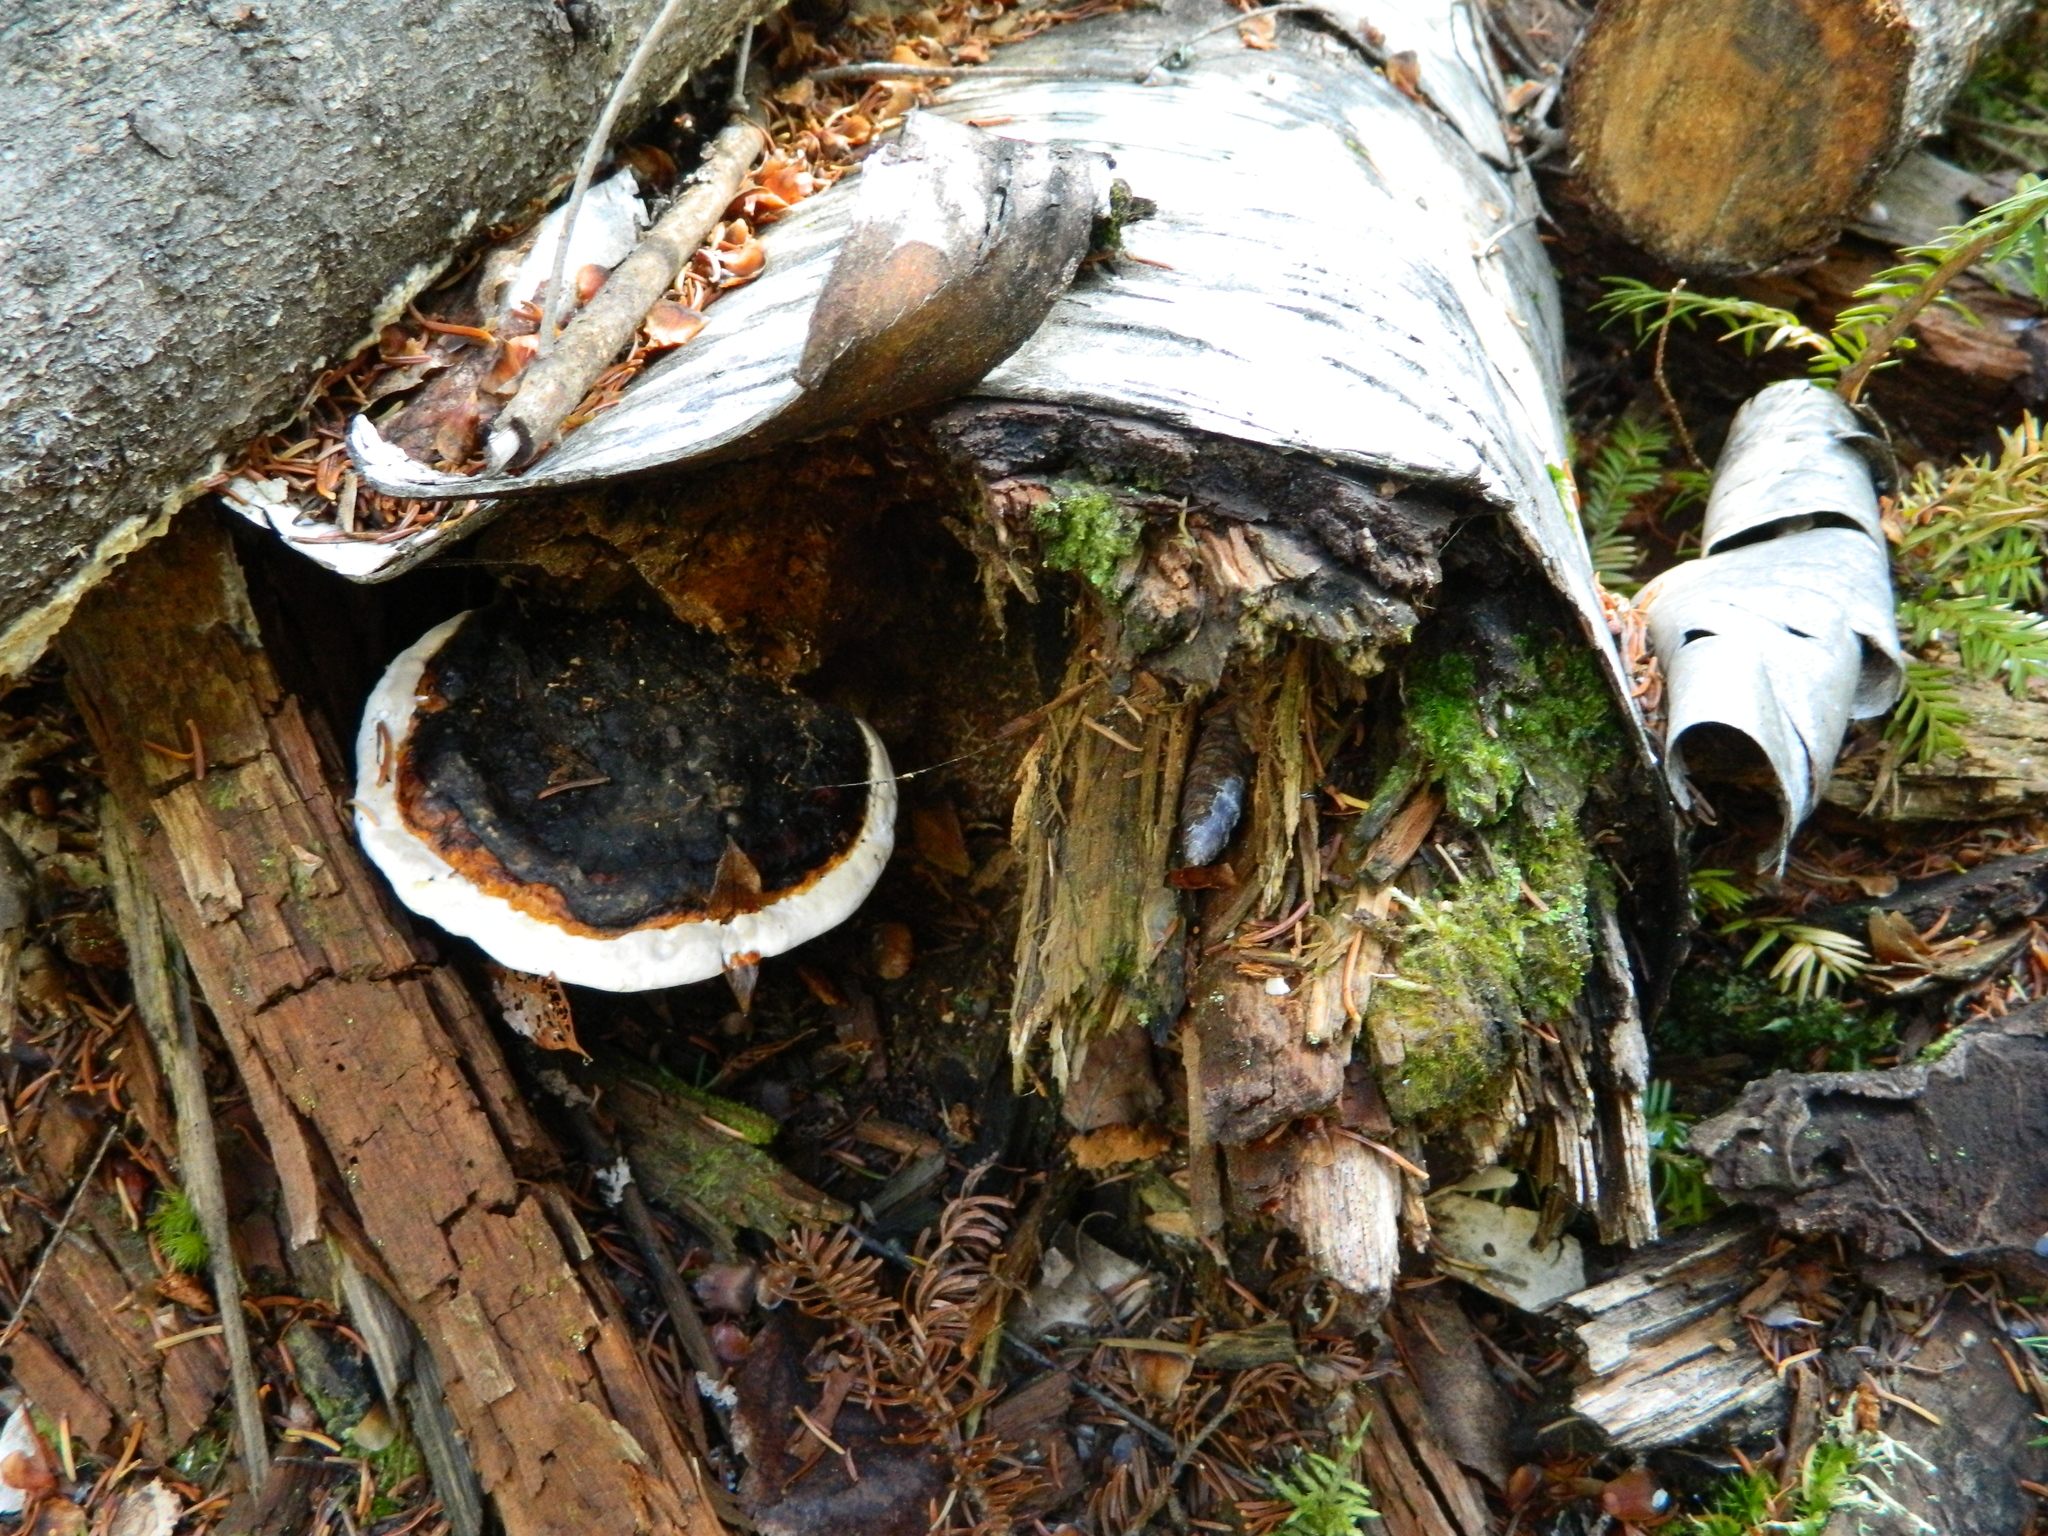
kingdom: Fungi
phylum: Basidiomycota
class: Agaricomycetes
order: Polyporales
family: Fomitopsidaceae
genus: Fomitopsis
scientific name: Fomitopsis mounceae
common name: Northern red belt
